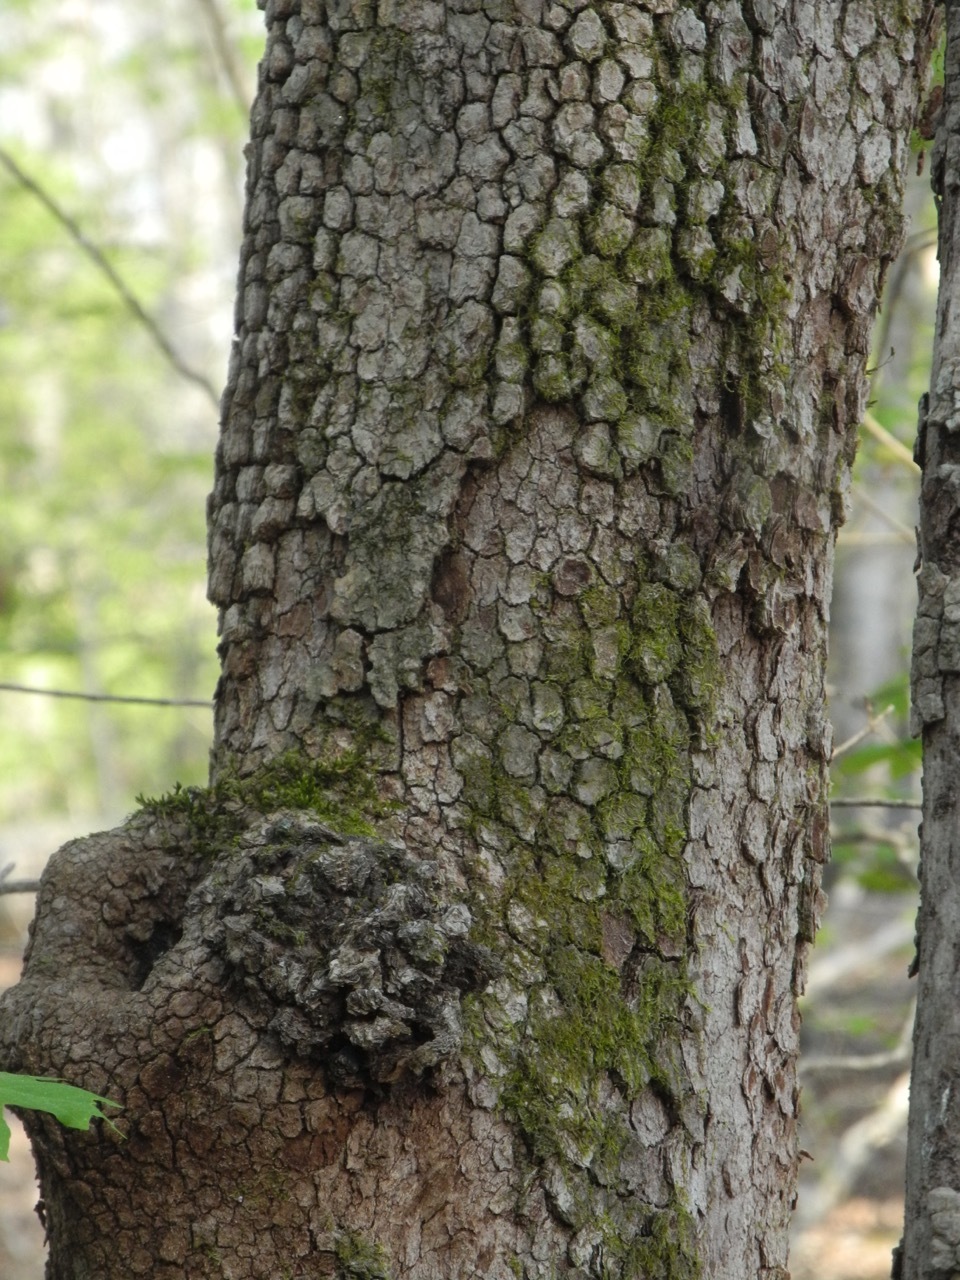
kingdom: Plantae
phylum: Tracheophyta
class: Magnoliopsida
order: Cornales
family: Cornaceae
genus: Cornus
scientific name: Cornus florida
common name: Flowering dogwood
